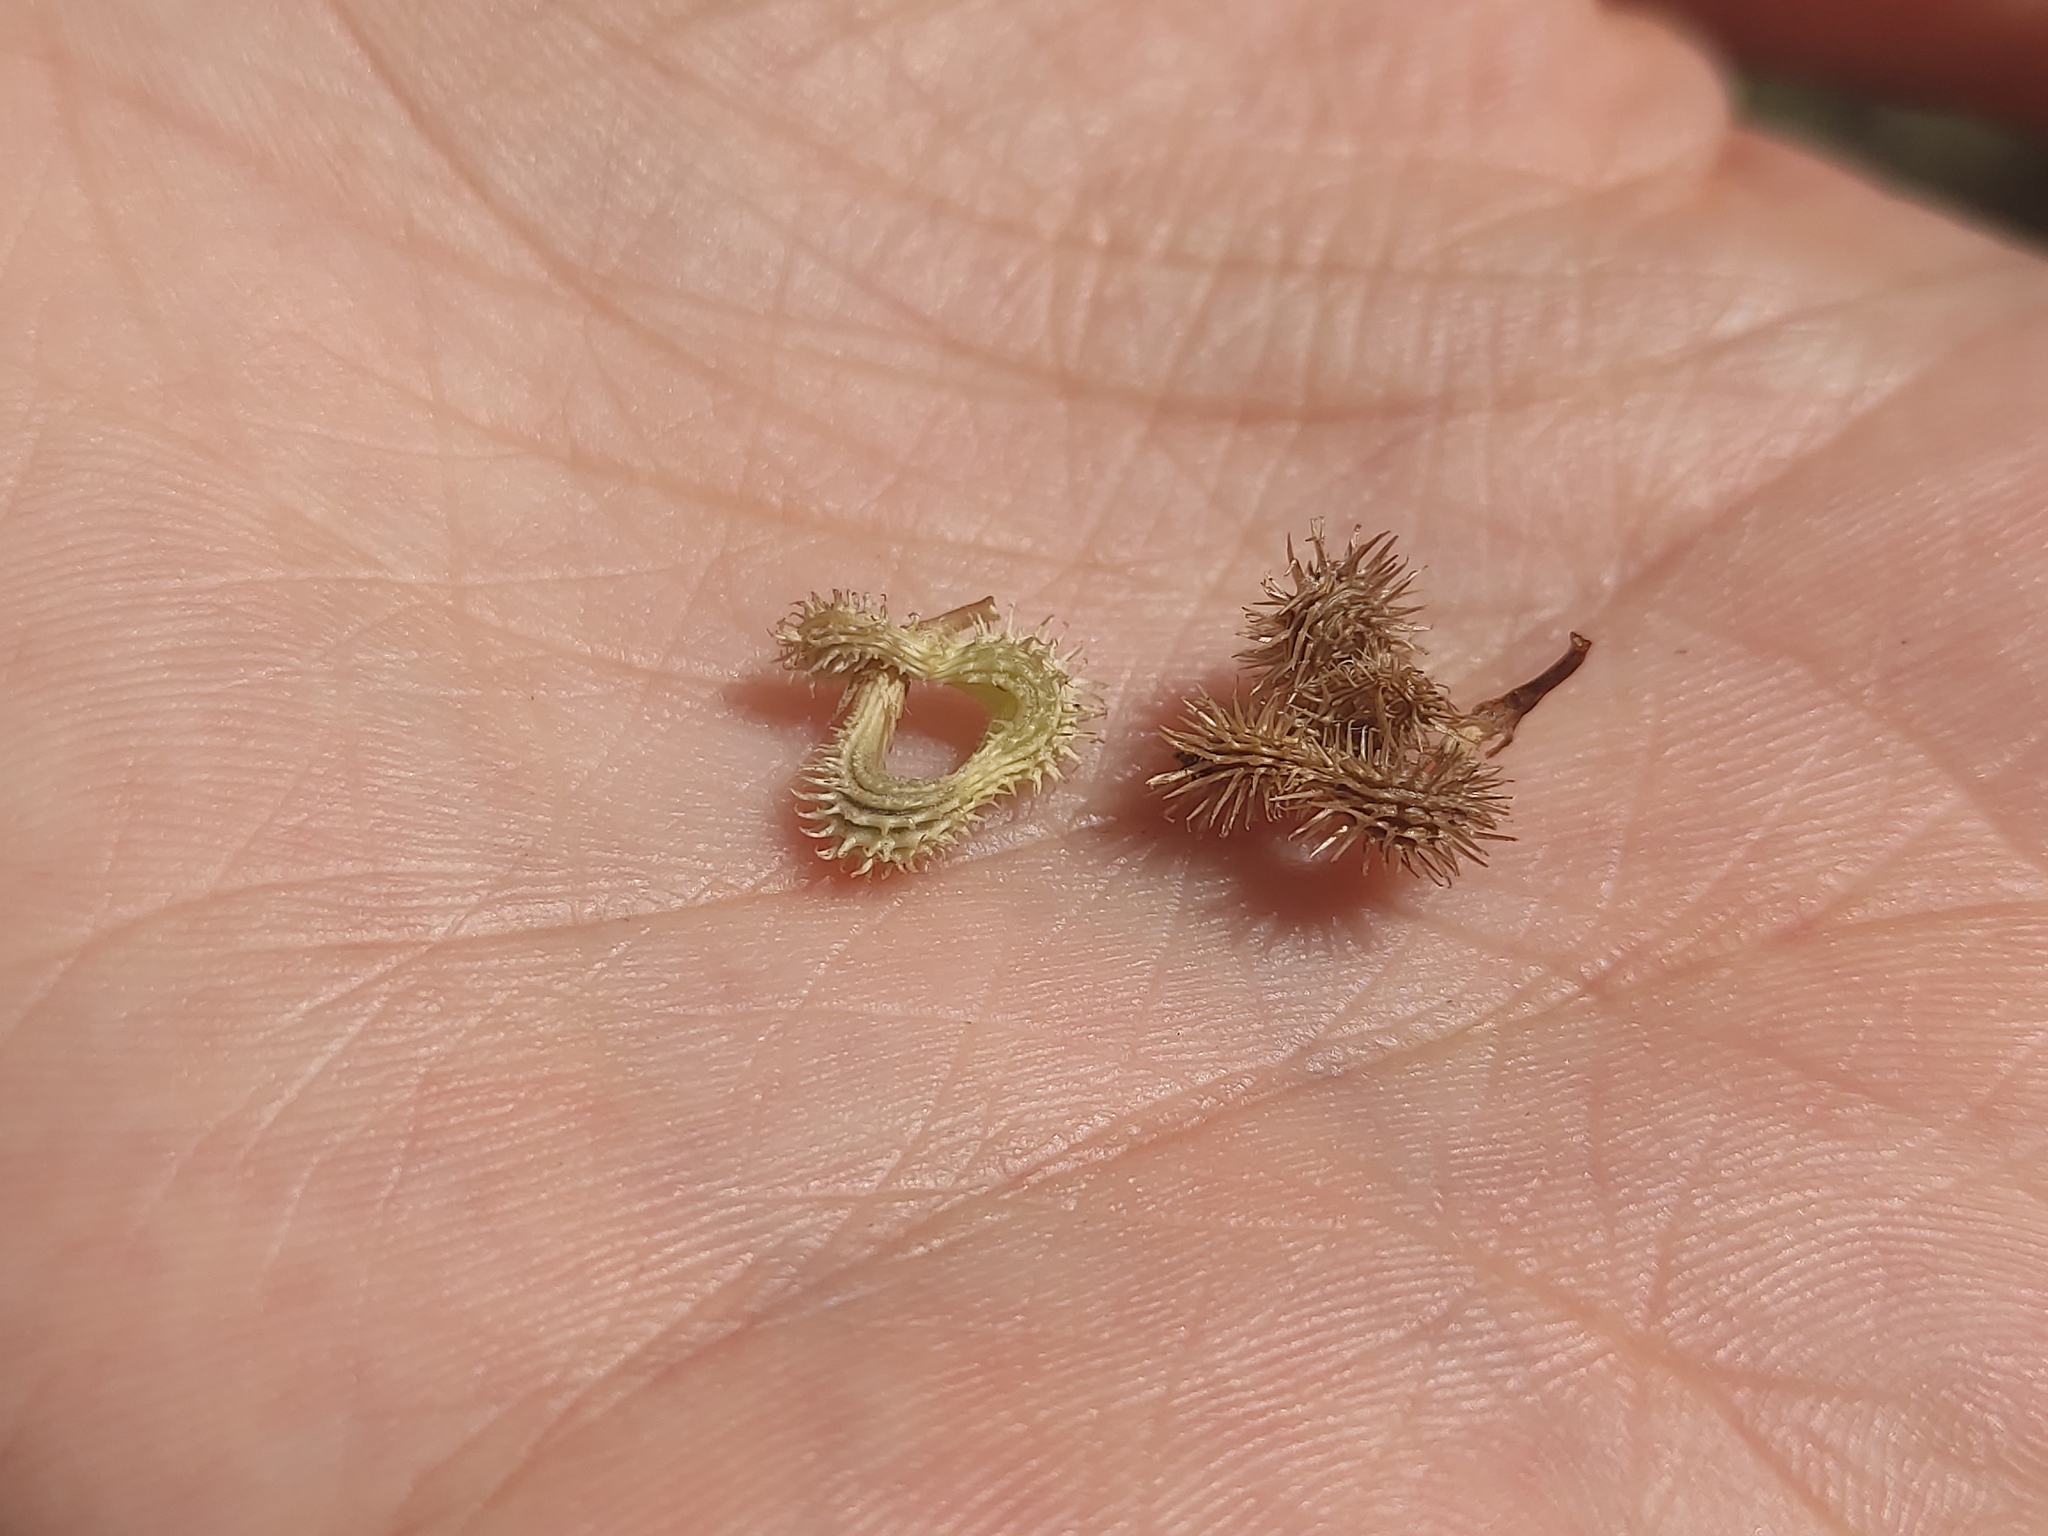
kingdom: Plantae
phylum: Tracheophyta
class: Magnoliopsida
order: Fabales
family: Fabaceae
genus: Medicago
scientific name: Medicago minima
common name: Little bur-clover
